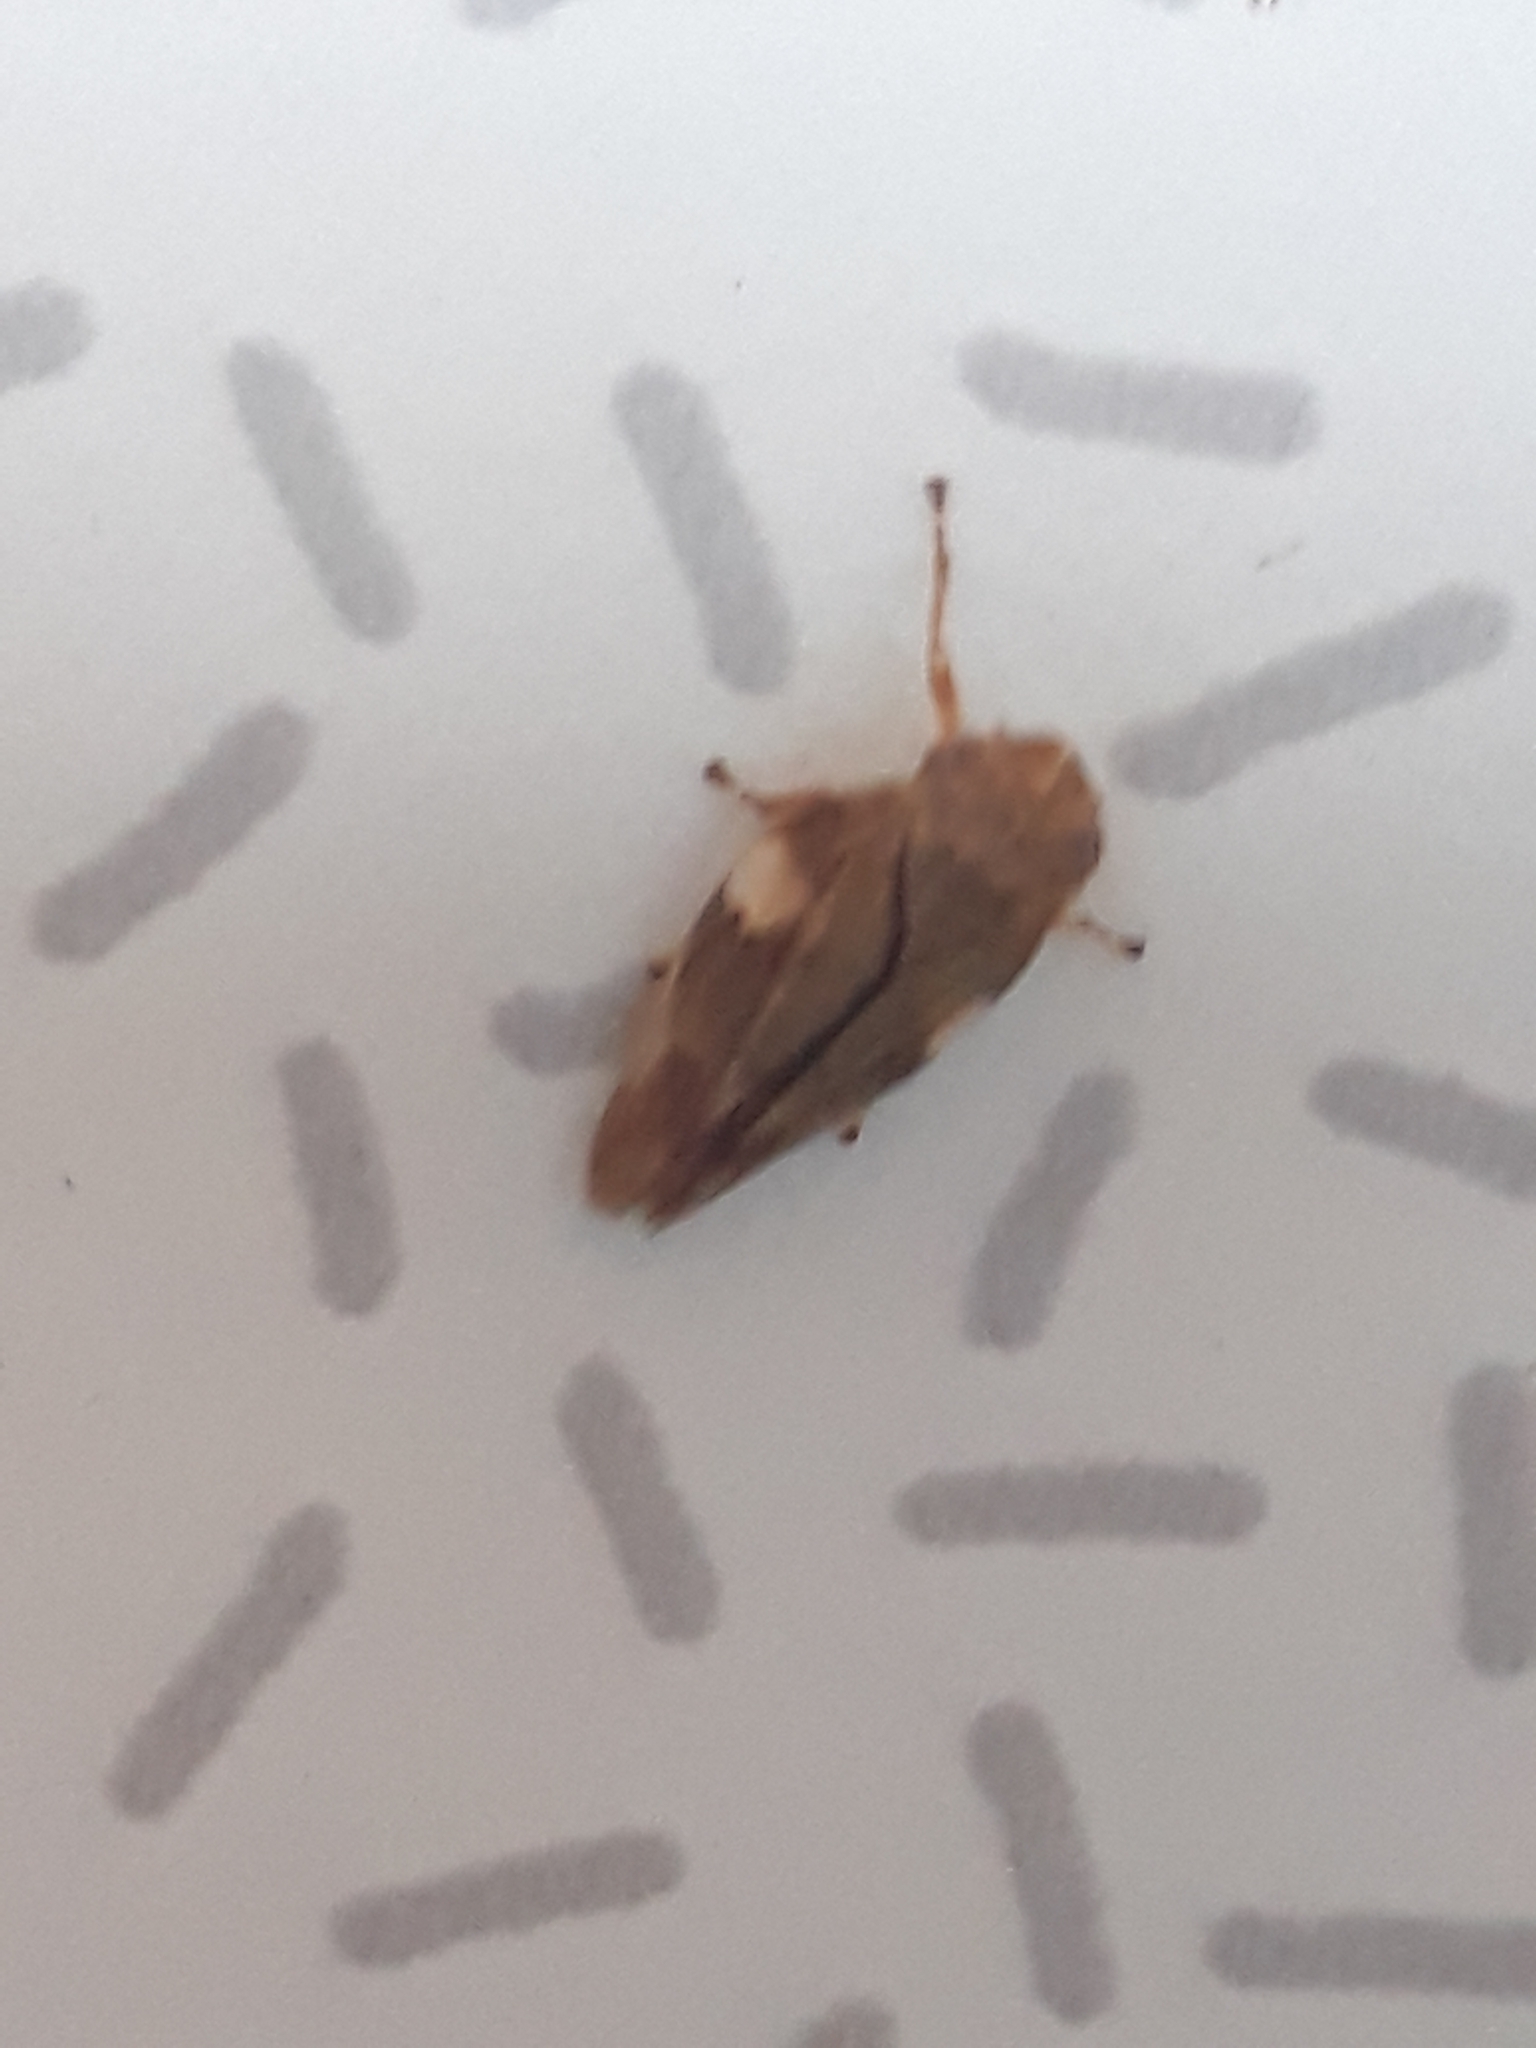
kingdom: Animalia
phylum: Arthropoda
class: Insecta
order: Hemiptera
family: Aphrophoridae
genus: Aphrophora
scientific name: Aphrophora alni
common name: European alder spittlebug
